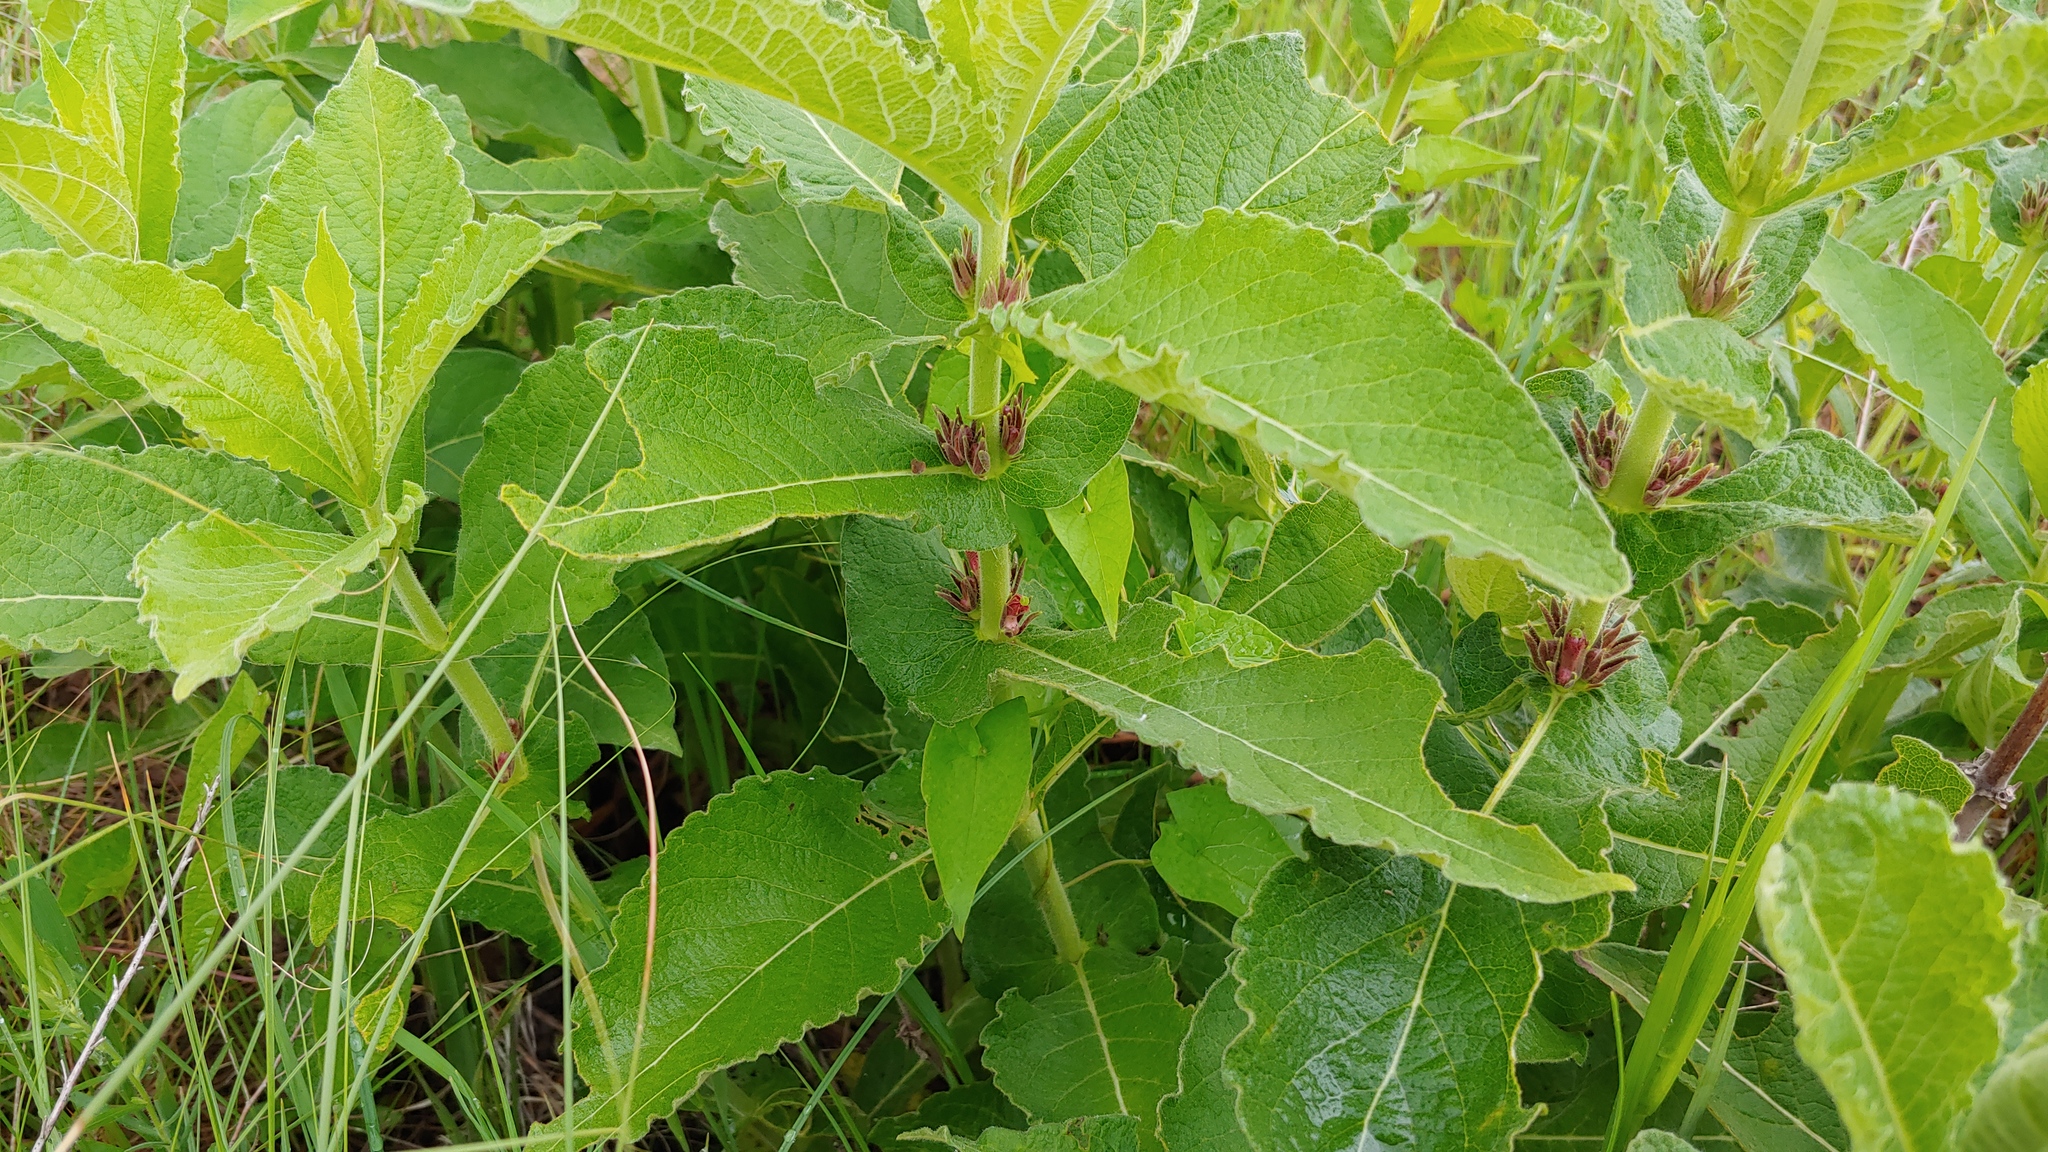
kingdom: Plantae
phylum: Tracheophyta
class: Magnoliopsida
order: Dipsacales
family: Caprifoliaceae
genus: Triosteum
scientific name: Triosteum perfoliatum
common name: Common horse-gentian
